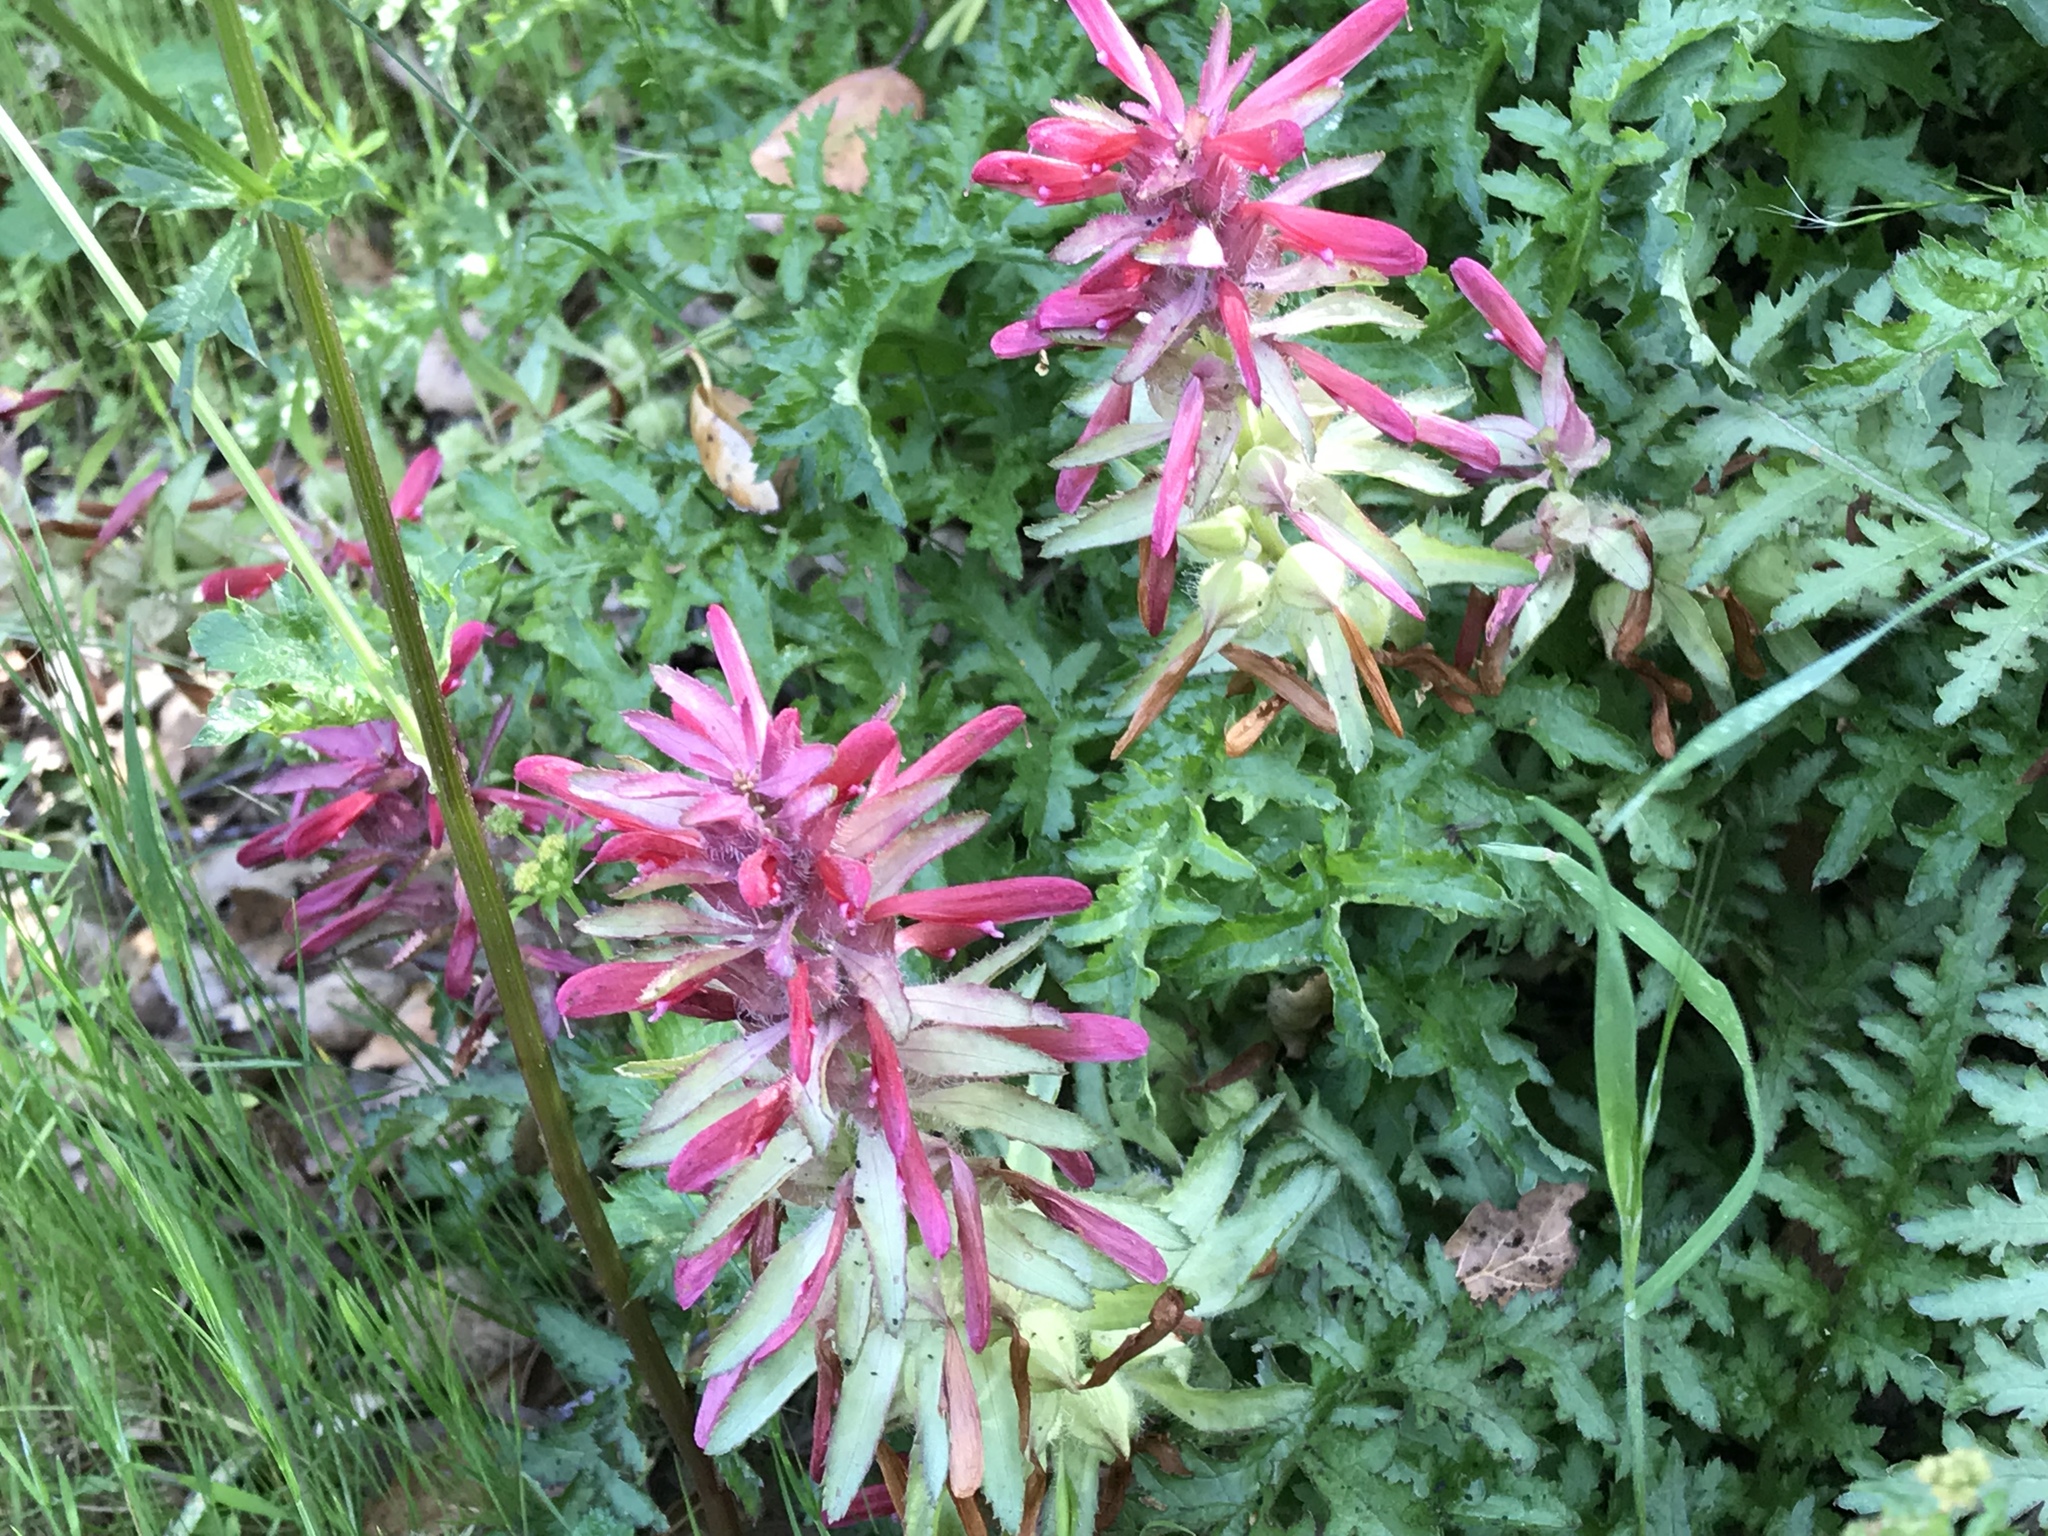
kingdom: Plantae
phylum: Tracheophyta
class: Magnoliopsida
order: Lamiales
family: Orobanchaceae
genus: Pedicularis
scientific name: Pedicularis densiflora
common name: Indian warrior
